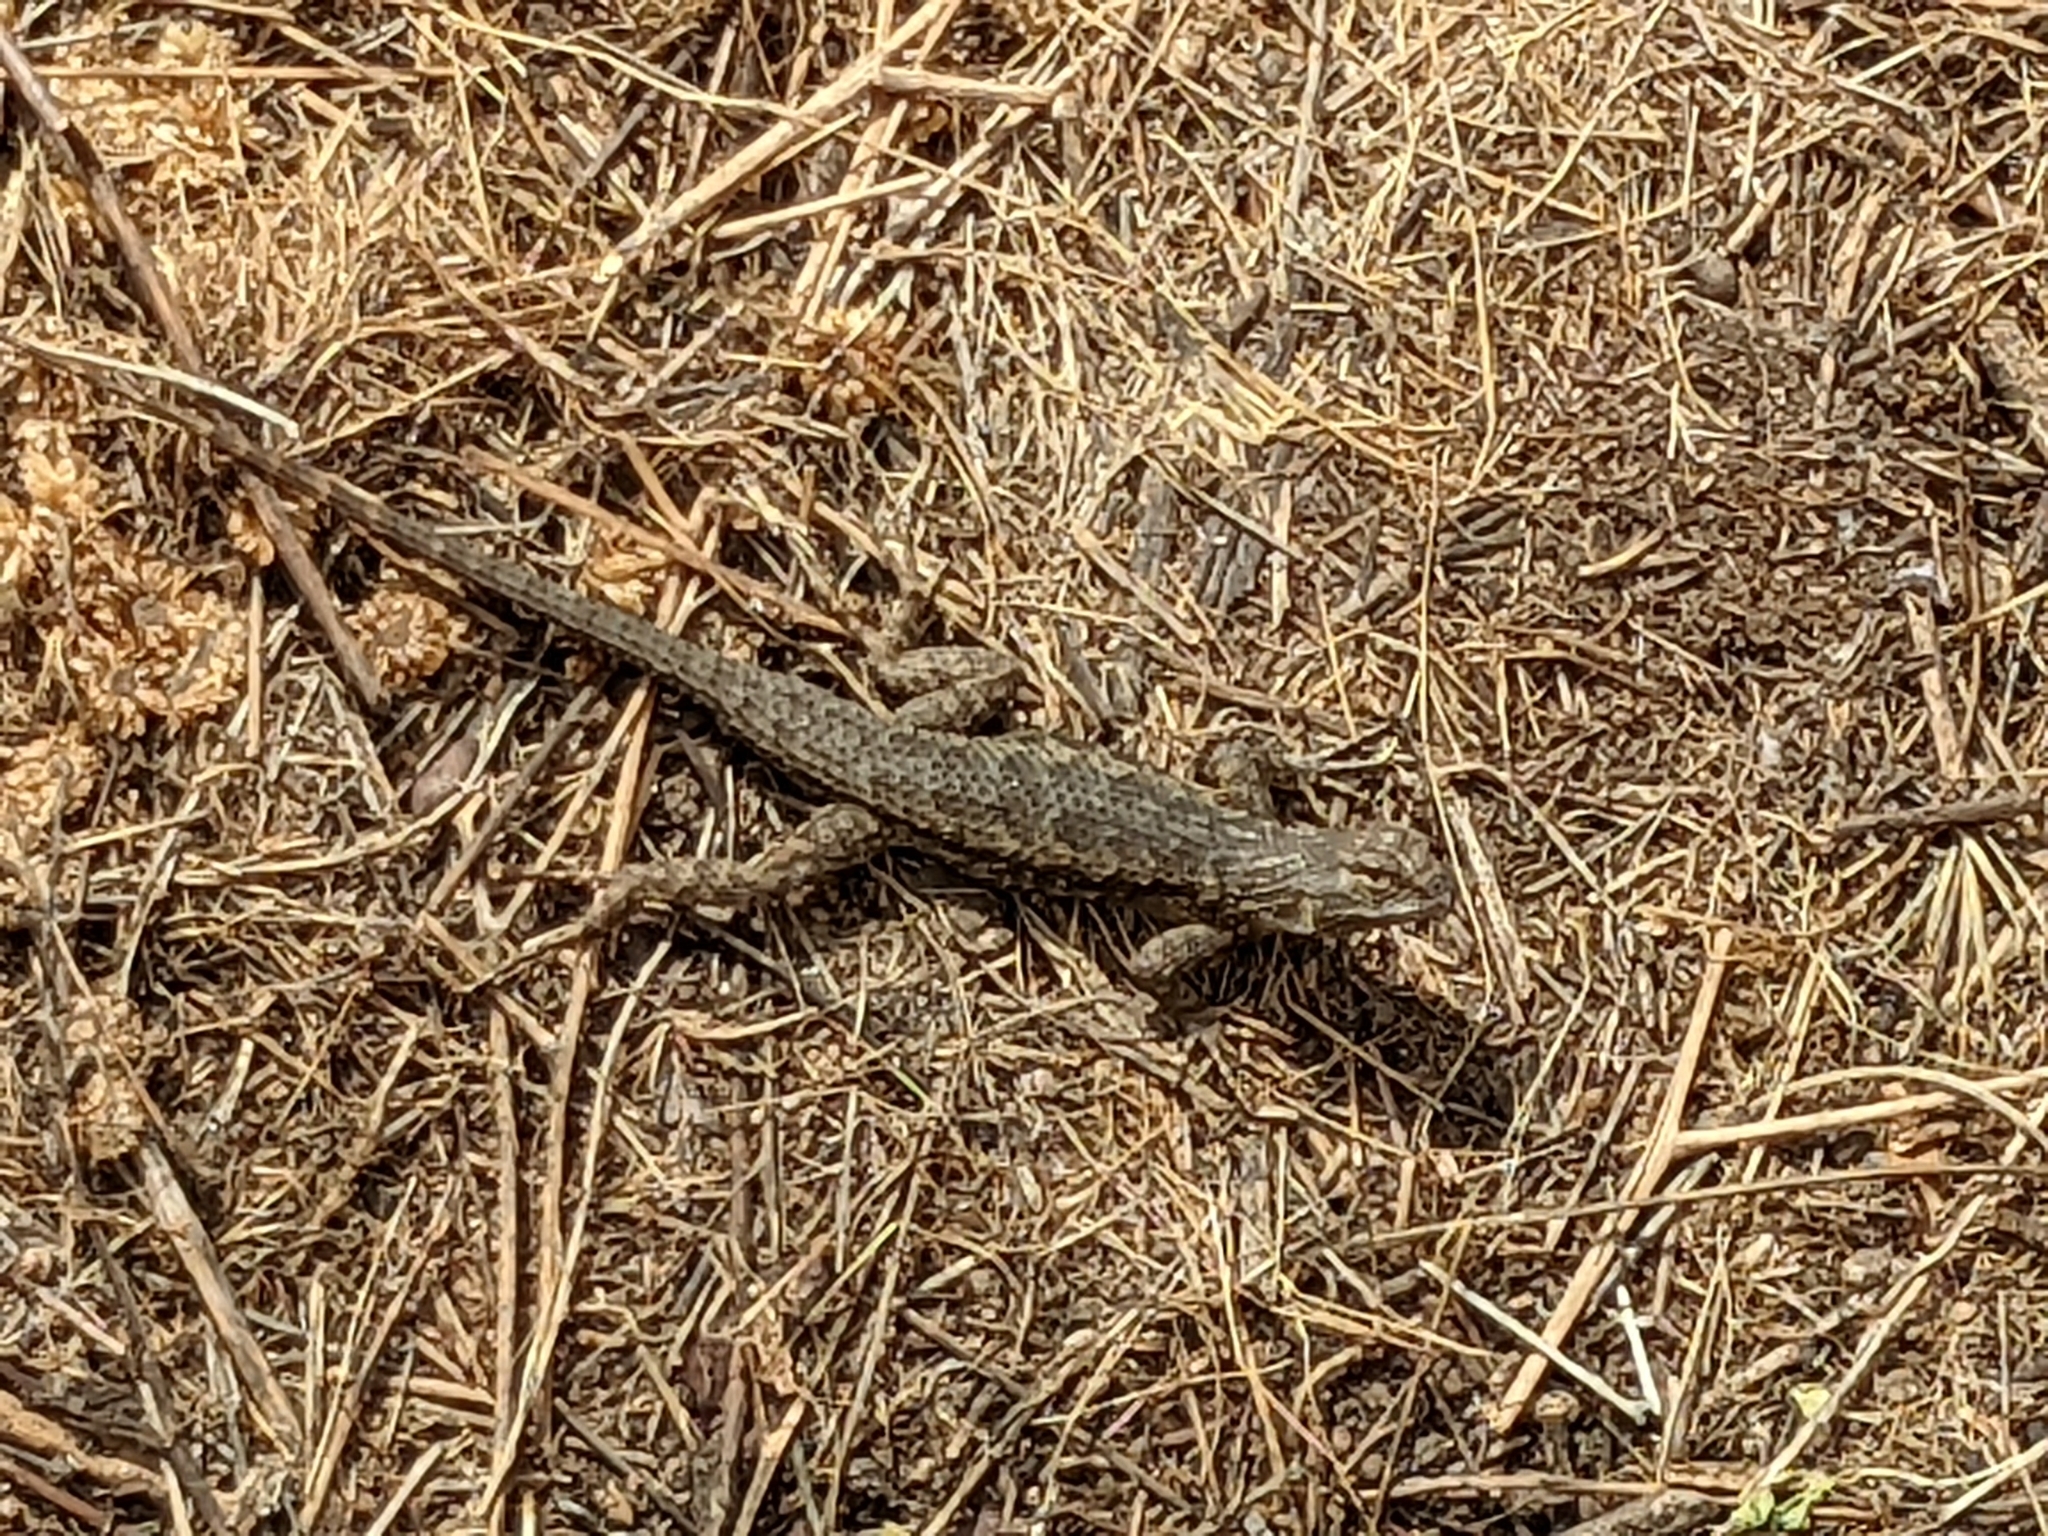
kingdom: Animalia
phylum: Chordata
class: Squamata
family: Phrynosomatidae
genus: Sceloporus
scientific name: Sceloporus occidentalis
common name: Western fence lizard
